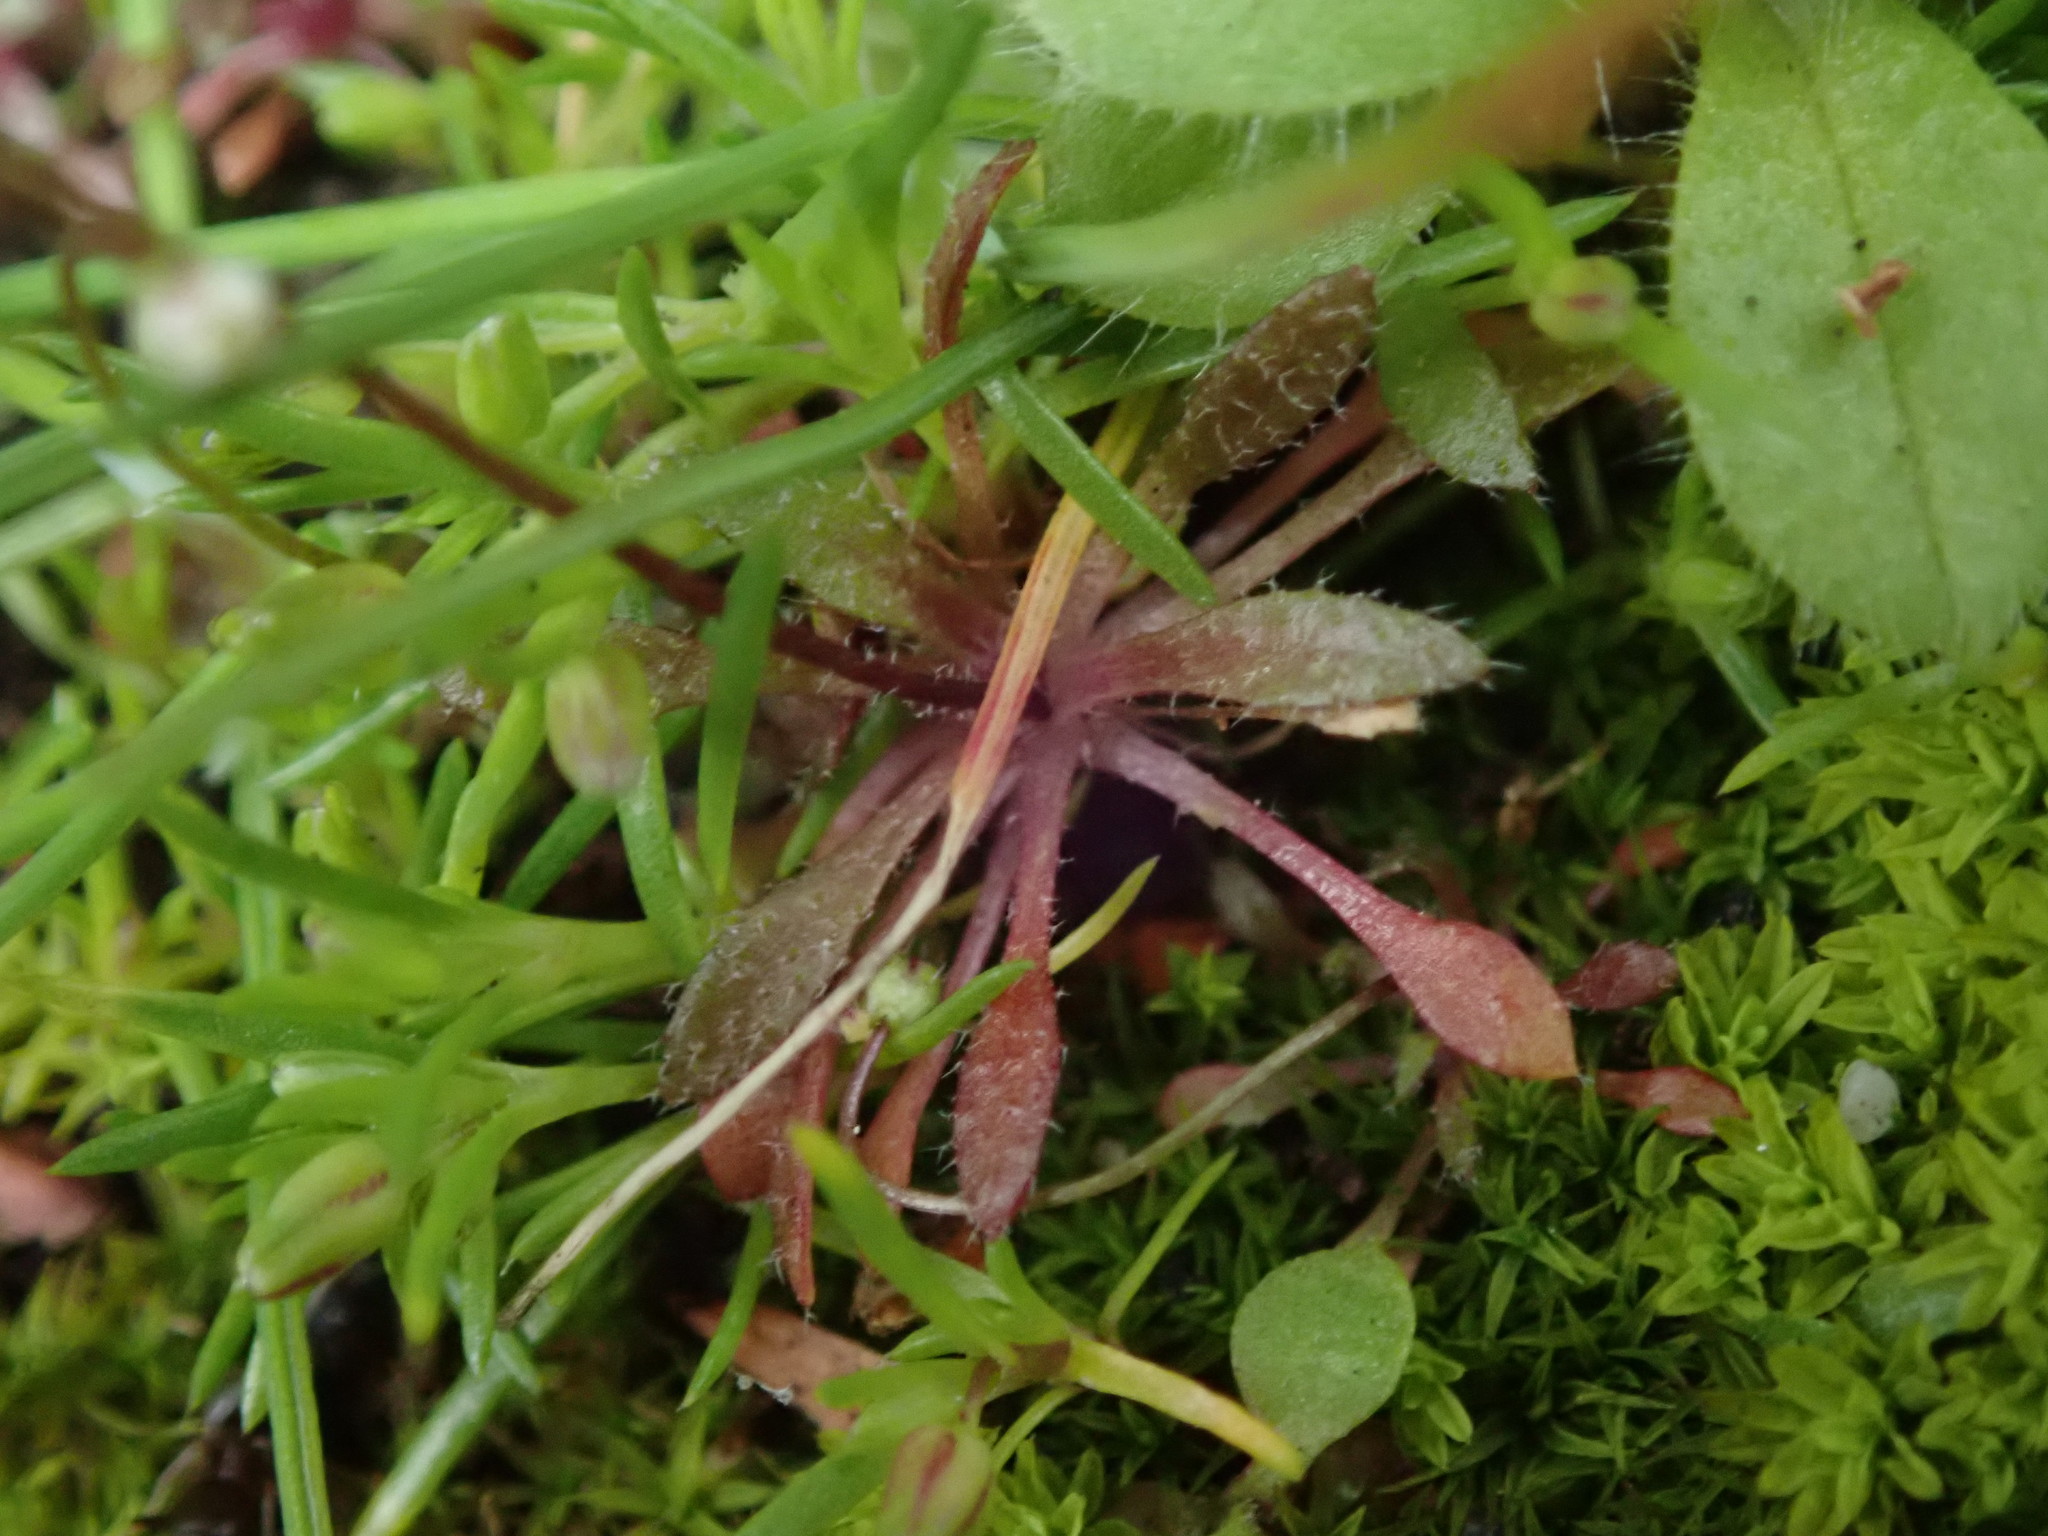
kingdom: Plantae
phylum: Tracheophyta
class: Magnoliopsida
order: Brassicales
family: Brassicaceae
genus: Draba
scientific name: Draba verna
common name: Spring draba
